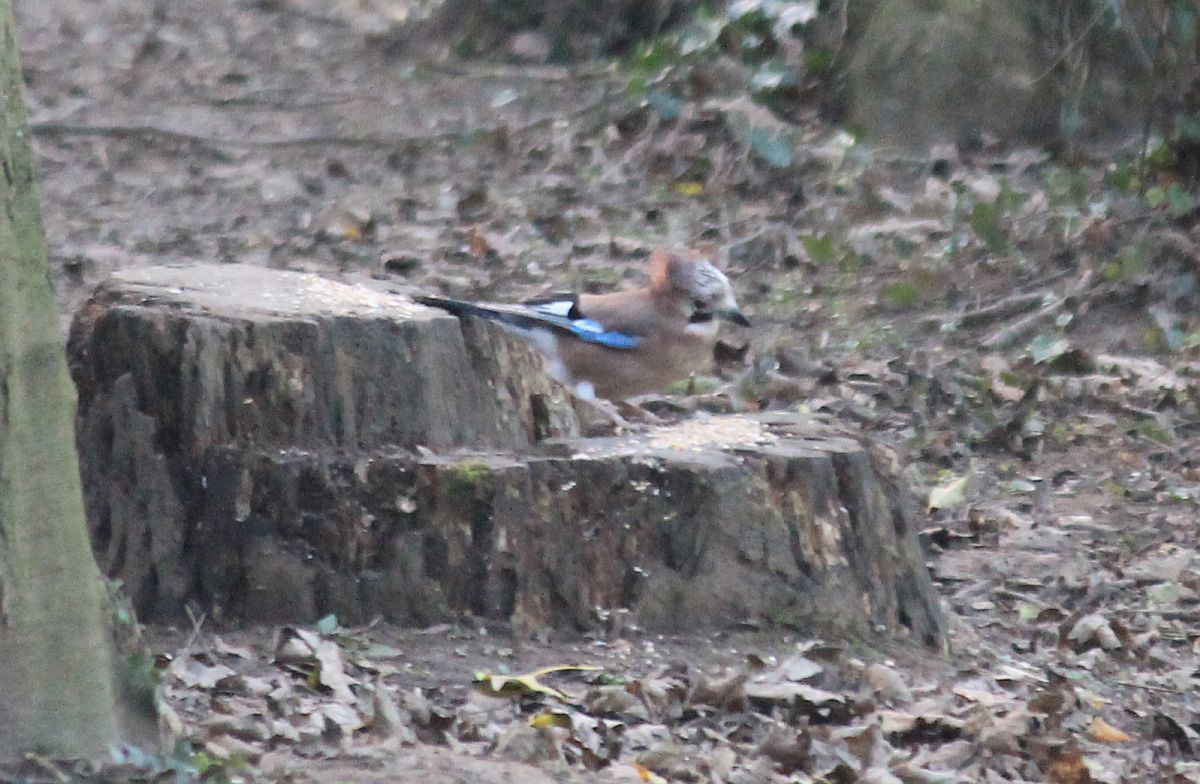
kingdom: Animalia
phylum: Chordata
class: Aves
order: Passeriformes
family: Corvidae
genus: Garrulus
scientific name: Garrulus glandarius
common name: Eurasian jay
